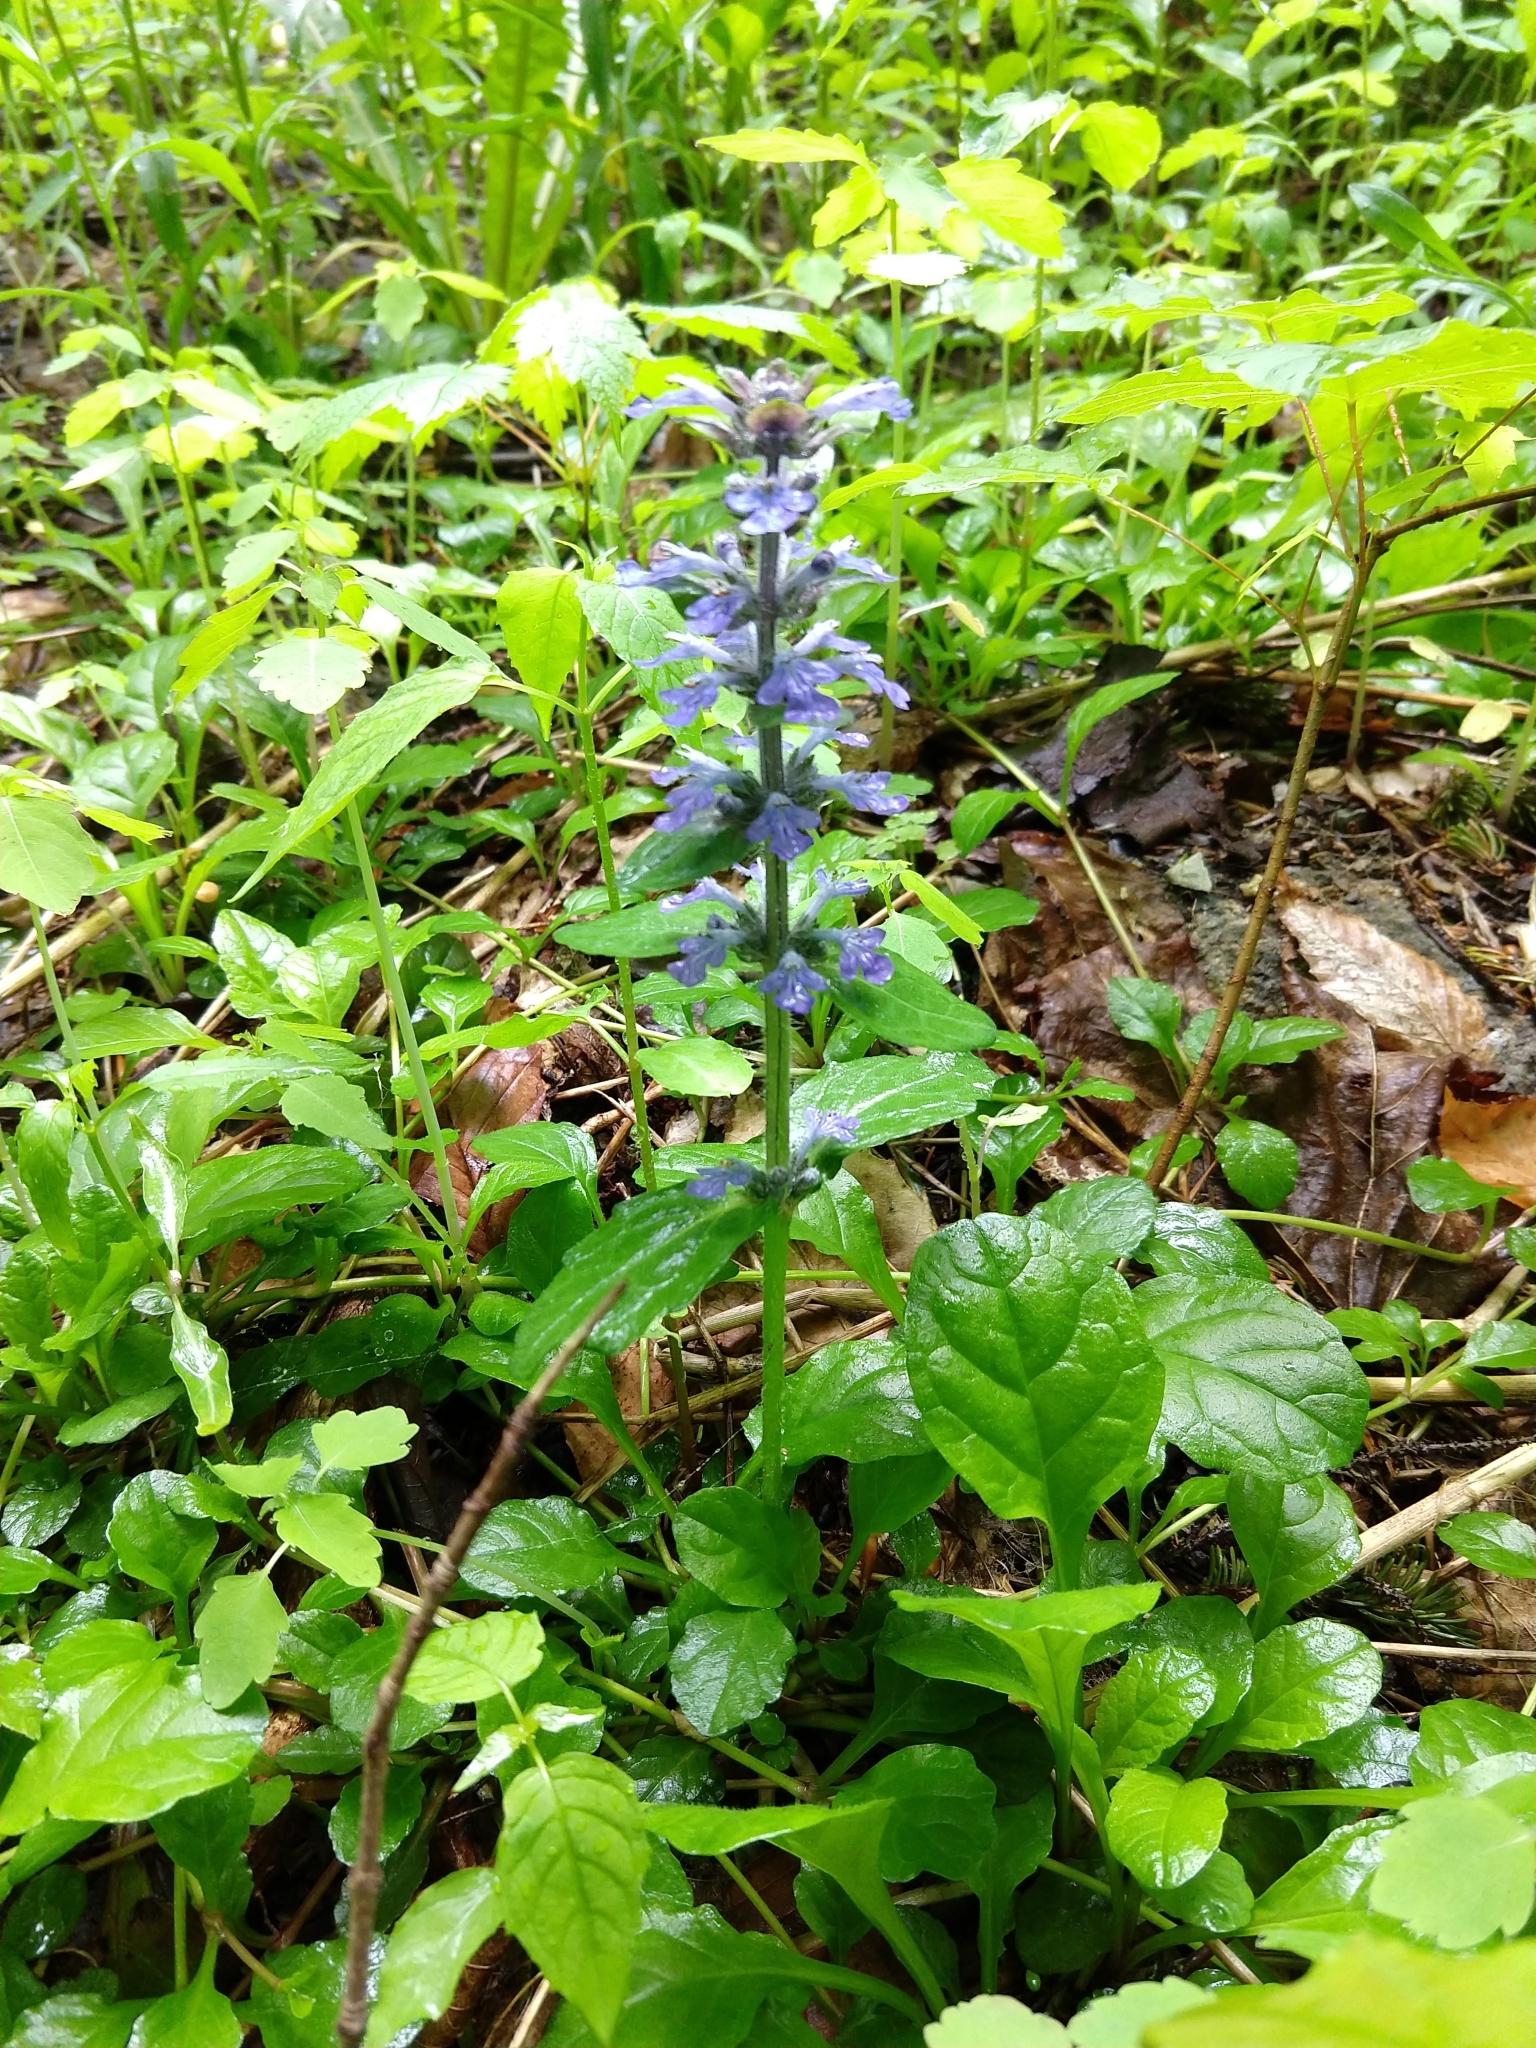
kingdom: Plantae
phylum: Tracheophyta
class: Magnoliopsida
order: Lamiales
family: Lamiaceae
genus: Ajuga
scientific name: Ajuga reptans
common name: Bugle
